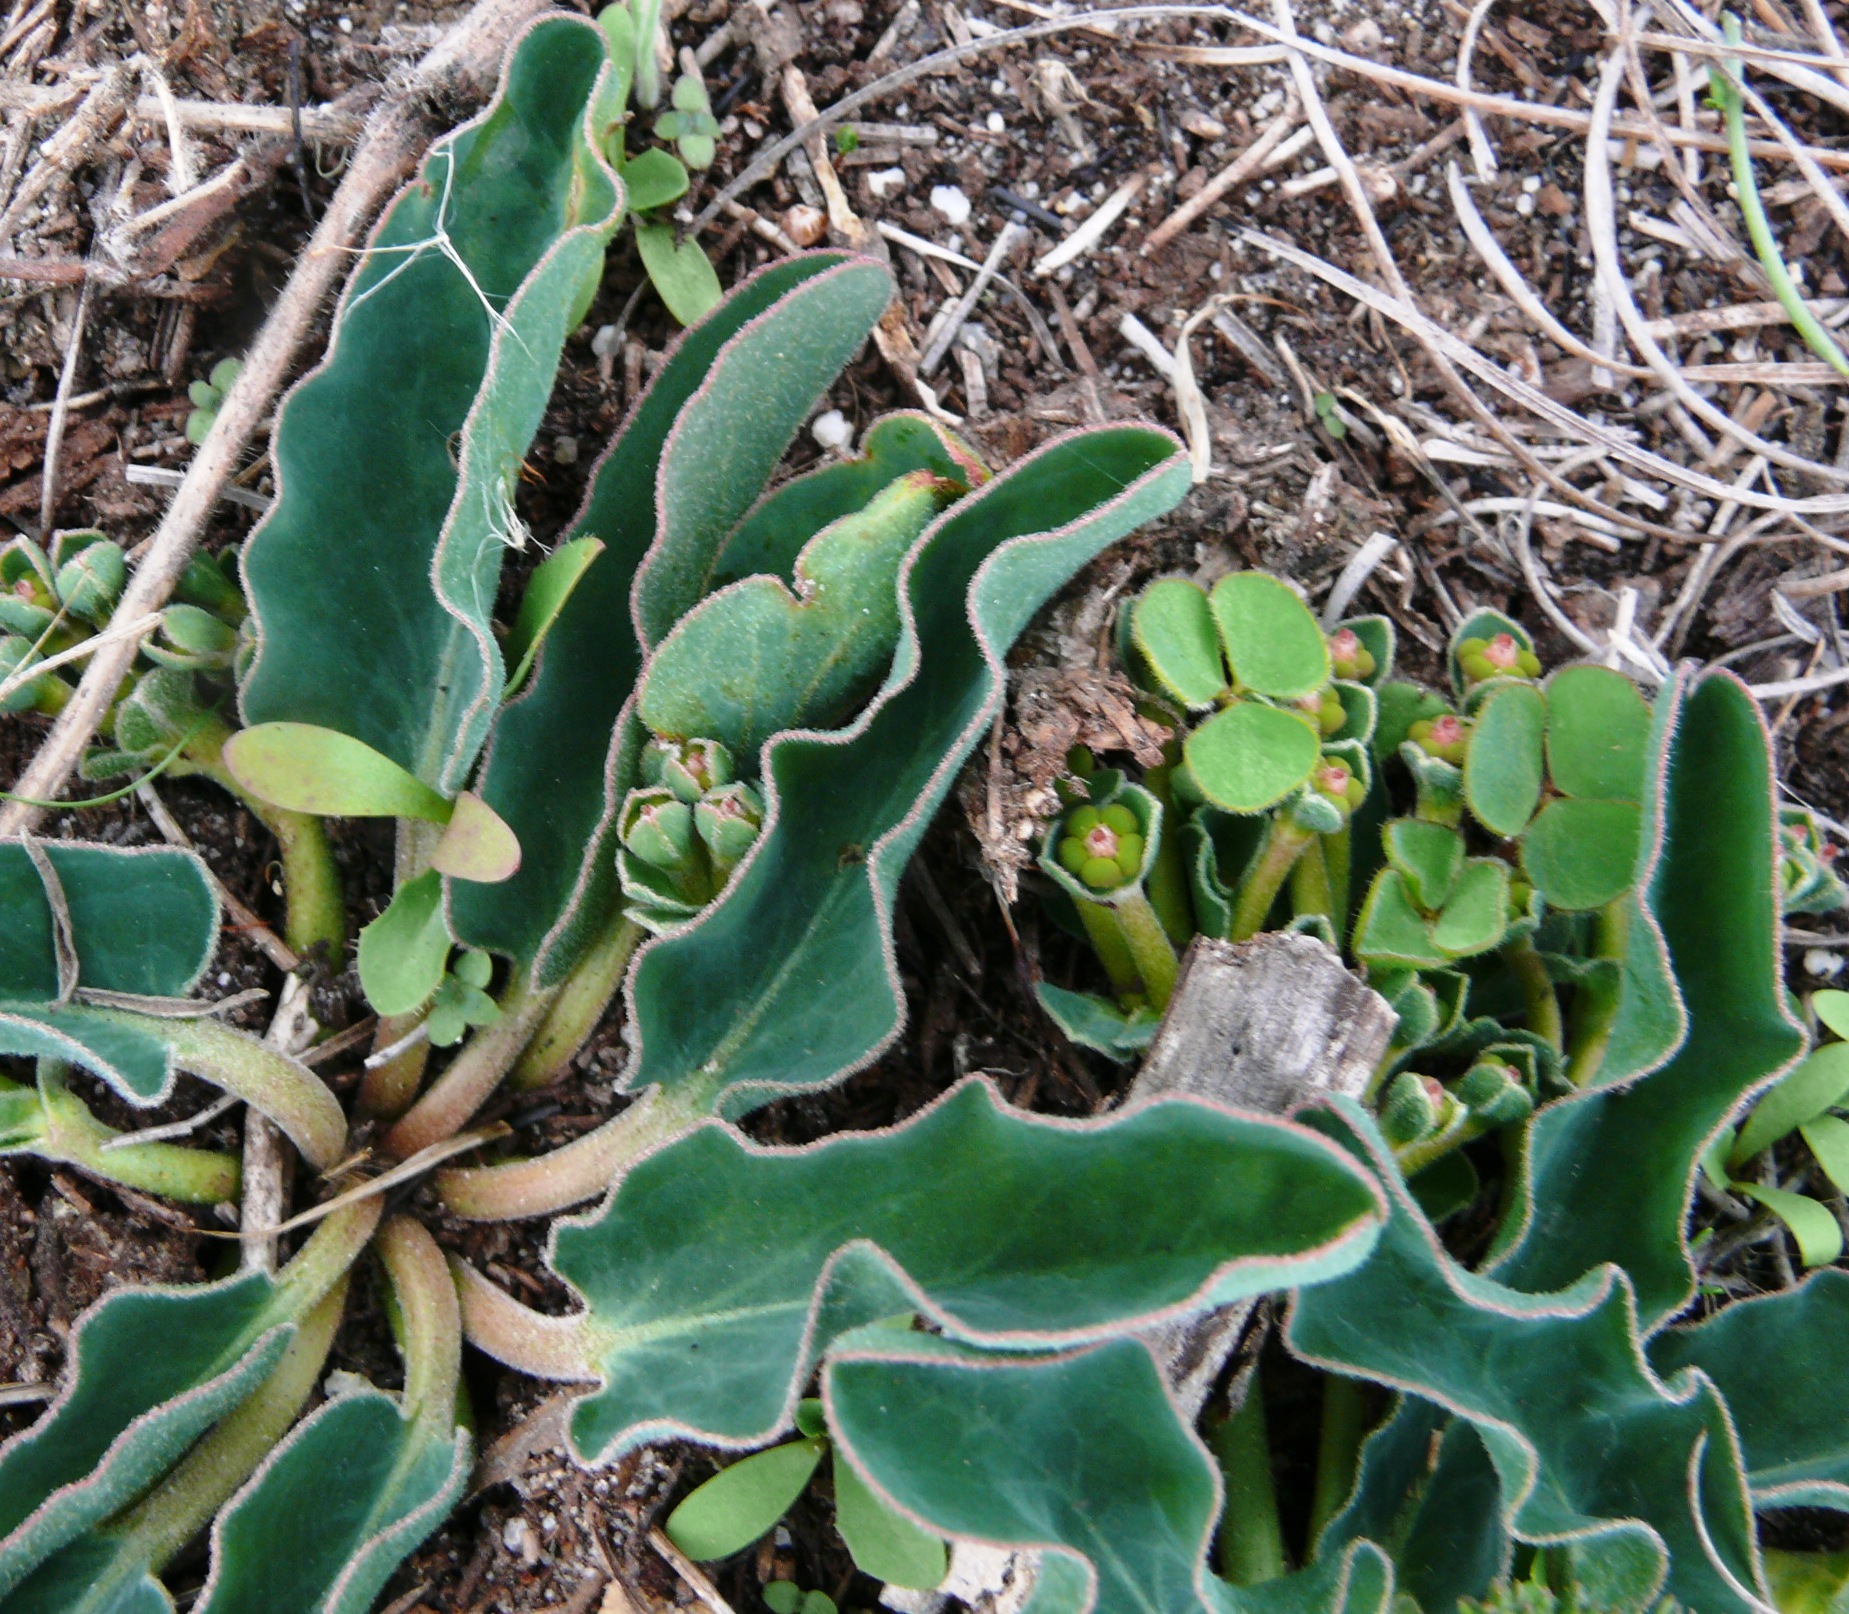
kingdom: Plantae
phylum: Tracheophyta
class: Magnoliopsida
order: Malpighiales
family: Euphorbiaceae
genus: Euphorbia
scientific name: Euphorbia tuberosa
